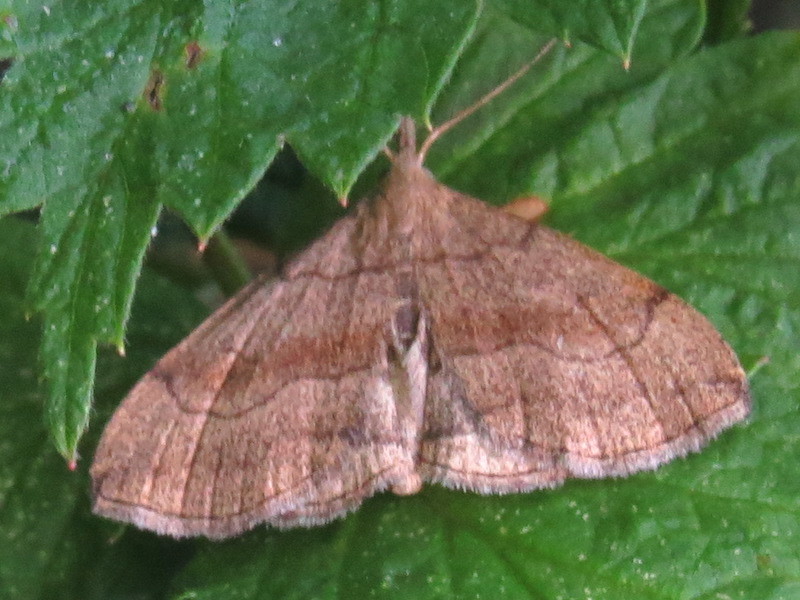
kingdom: Animalia
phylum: Arthropoda
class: Insecta
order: Lepidoptera
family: Erebidae
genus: Phalaenostola
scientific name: Phalaenostola metonalis
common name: Pale phalaenostola moth
